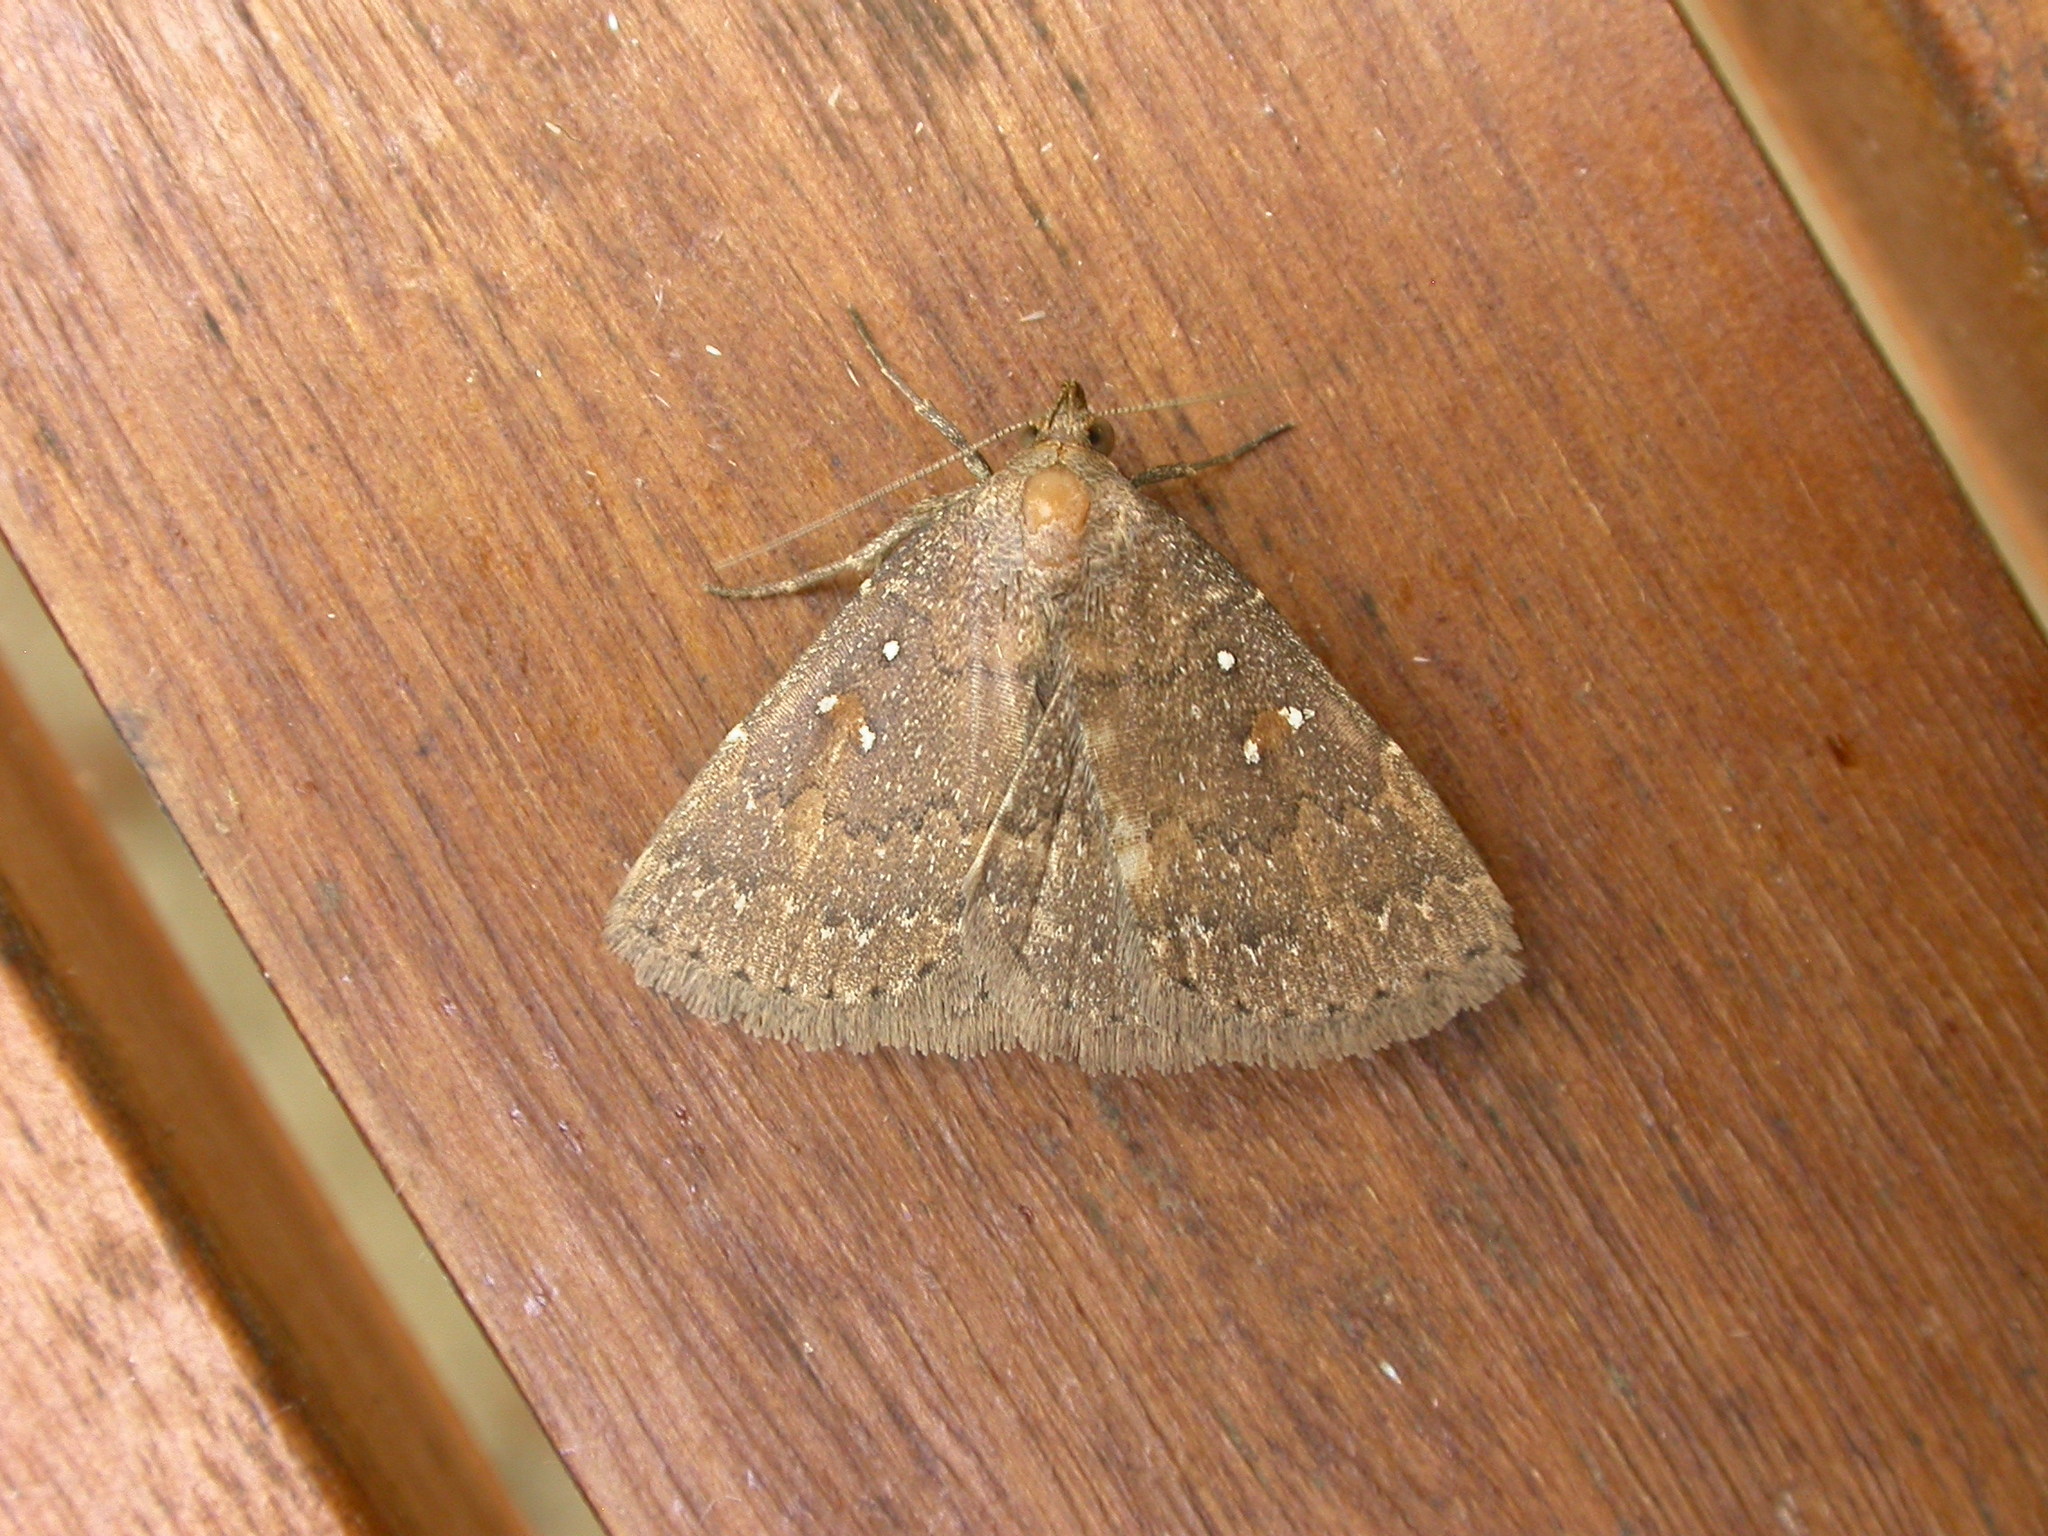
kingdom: Animalia
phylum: Arthropoda
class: Insecta
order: Lepidoptera
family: Erebidae
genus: Auchmophanes
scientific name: Auchmophanes platysara
